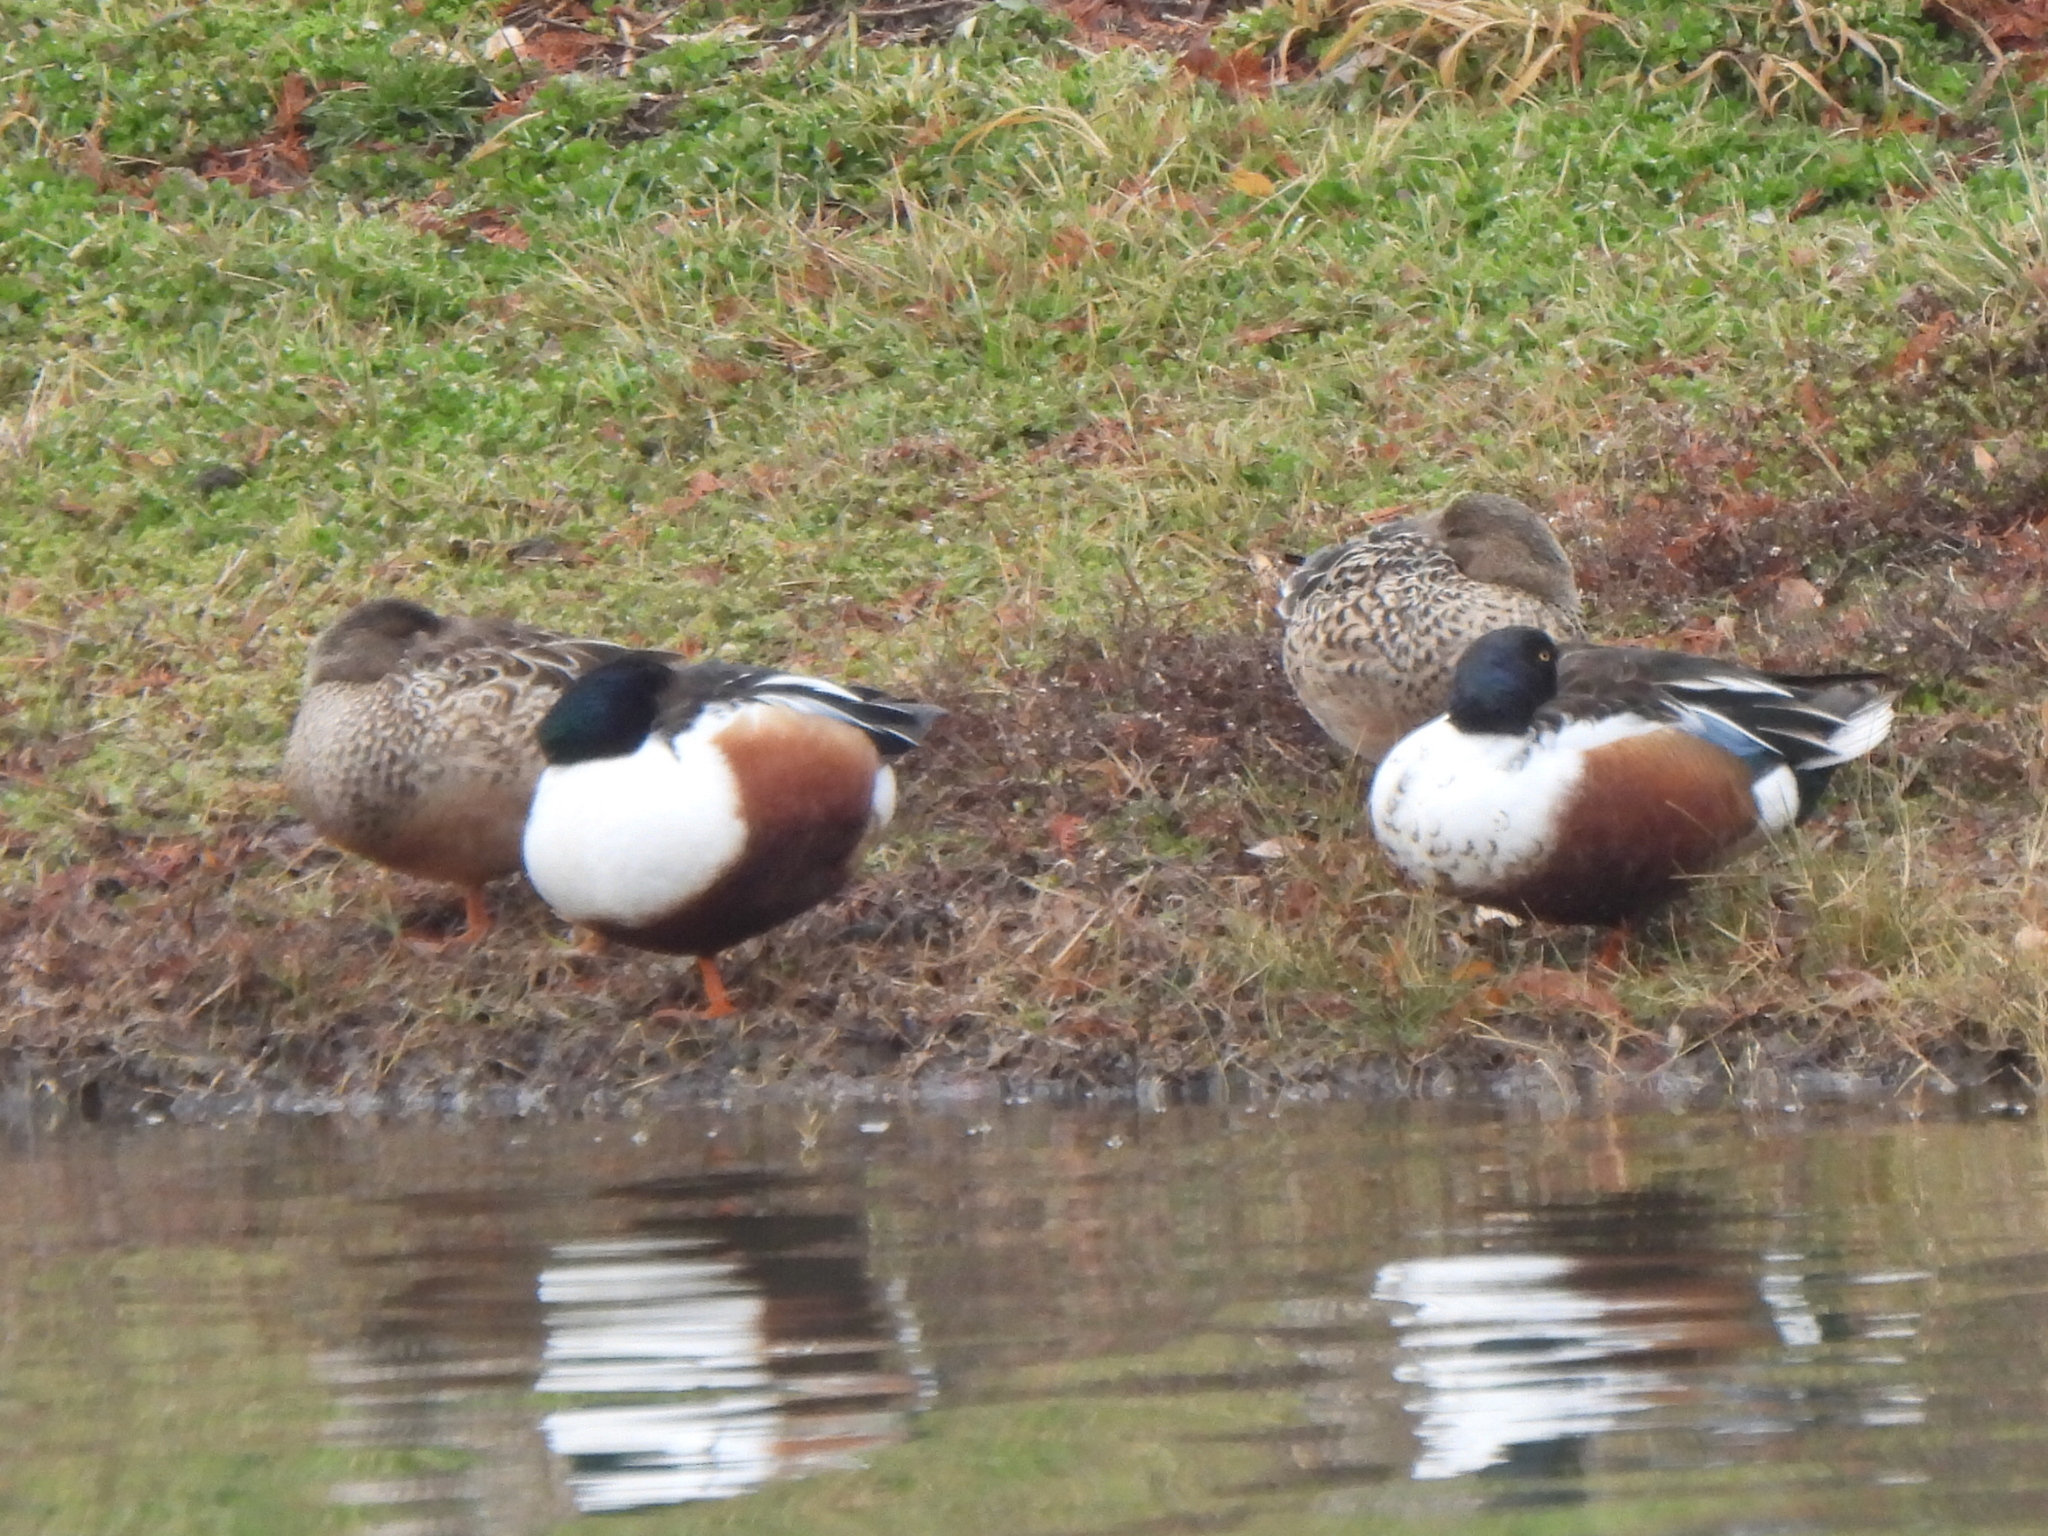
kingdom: Animalia
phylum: Chordata
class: Aves
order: Anseriformes
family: Anatidae
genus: Spatula
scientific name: Spatula clypeata
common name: Northern shoveler
